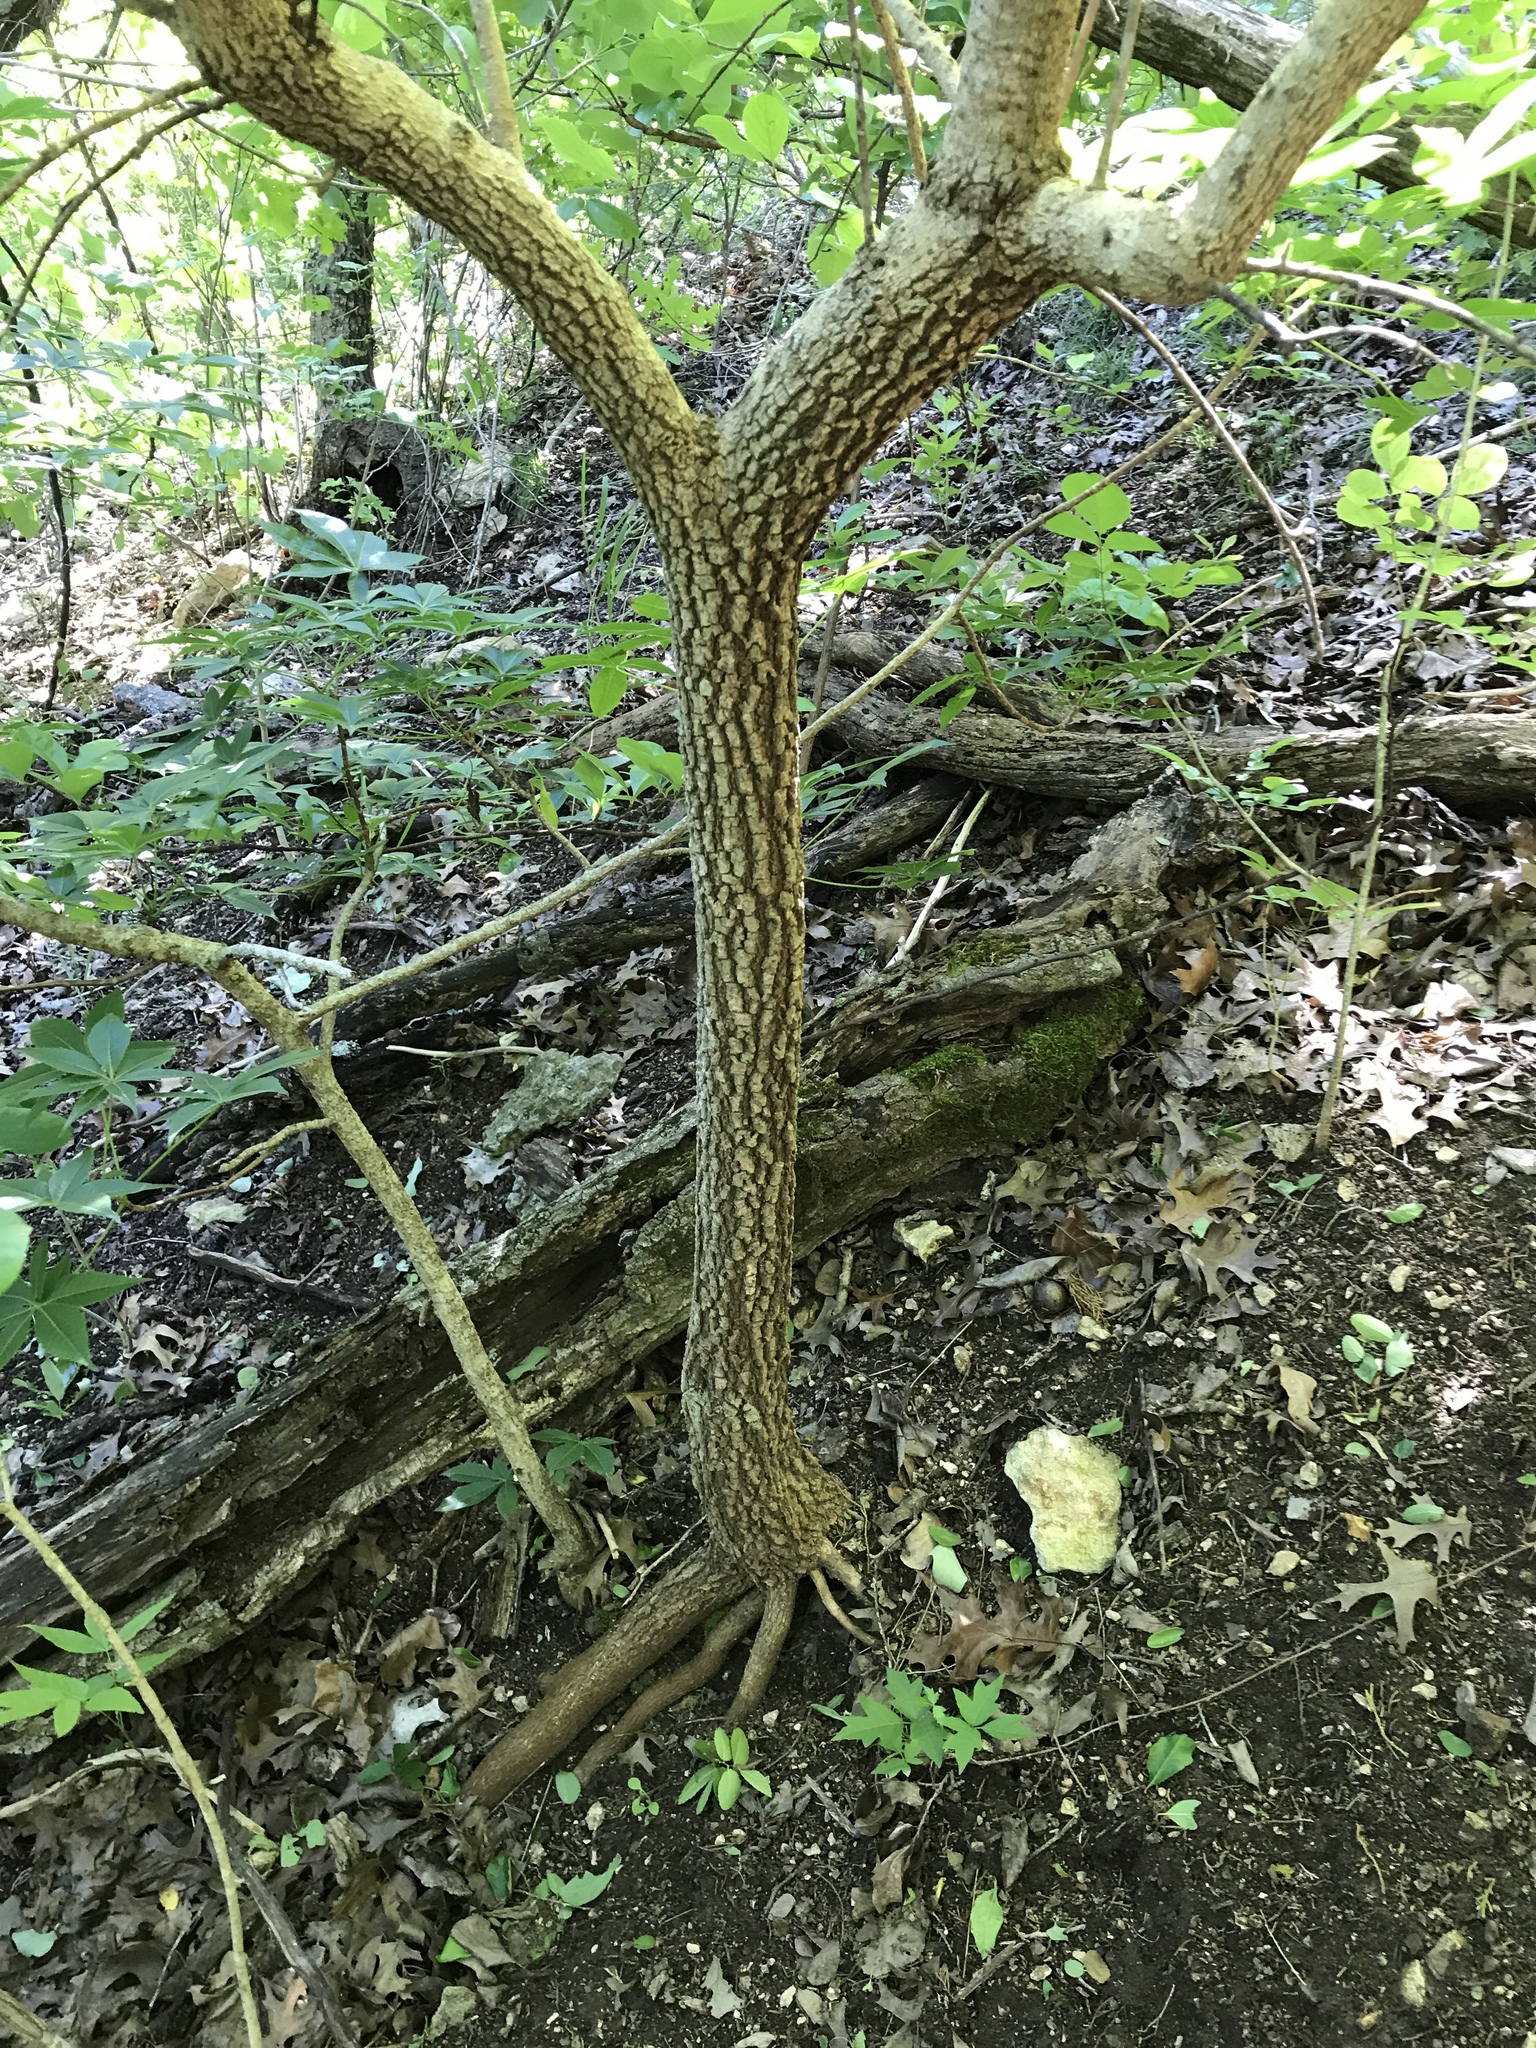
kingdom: Plantae
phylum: Tracheophyta
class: Magnoliopsida
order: Dipsacales
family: Viburnaceae
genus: Viburnum
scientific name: Viburnum rufidulum
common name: Blue haw
